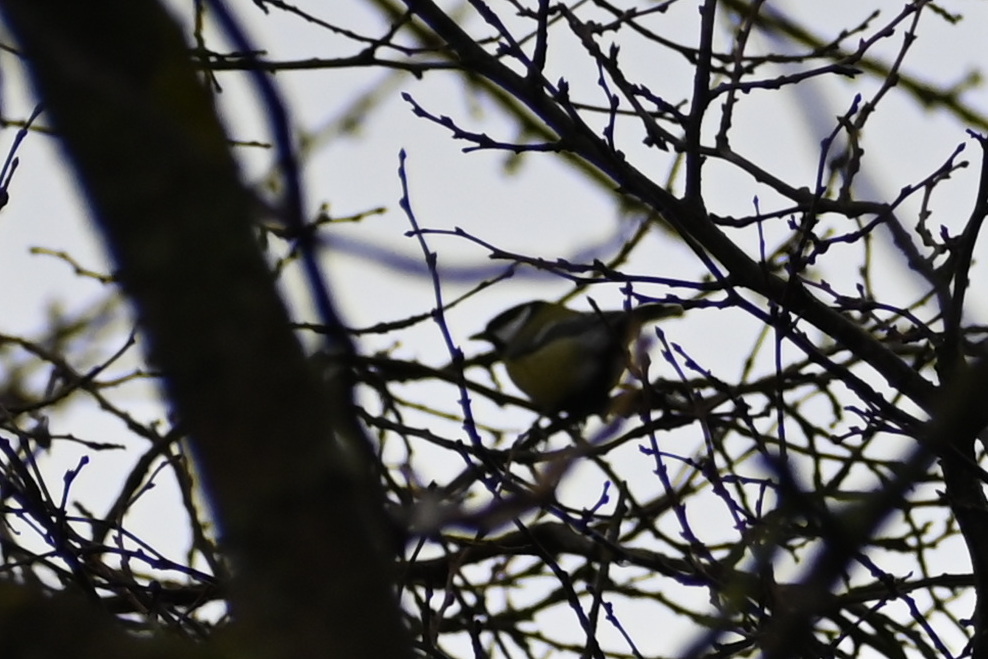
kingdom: Animalia
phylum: Chordata
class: Aves
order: Passeriformes
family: Paridae
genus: Parus
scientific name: Parus major
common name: Great tit
